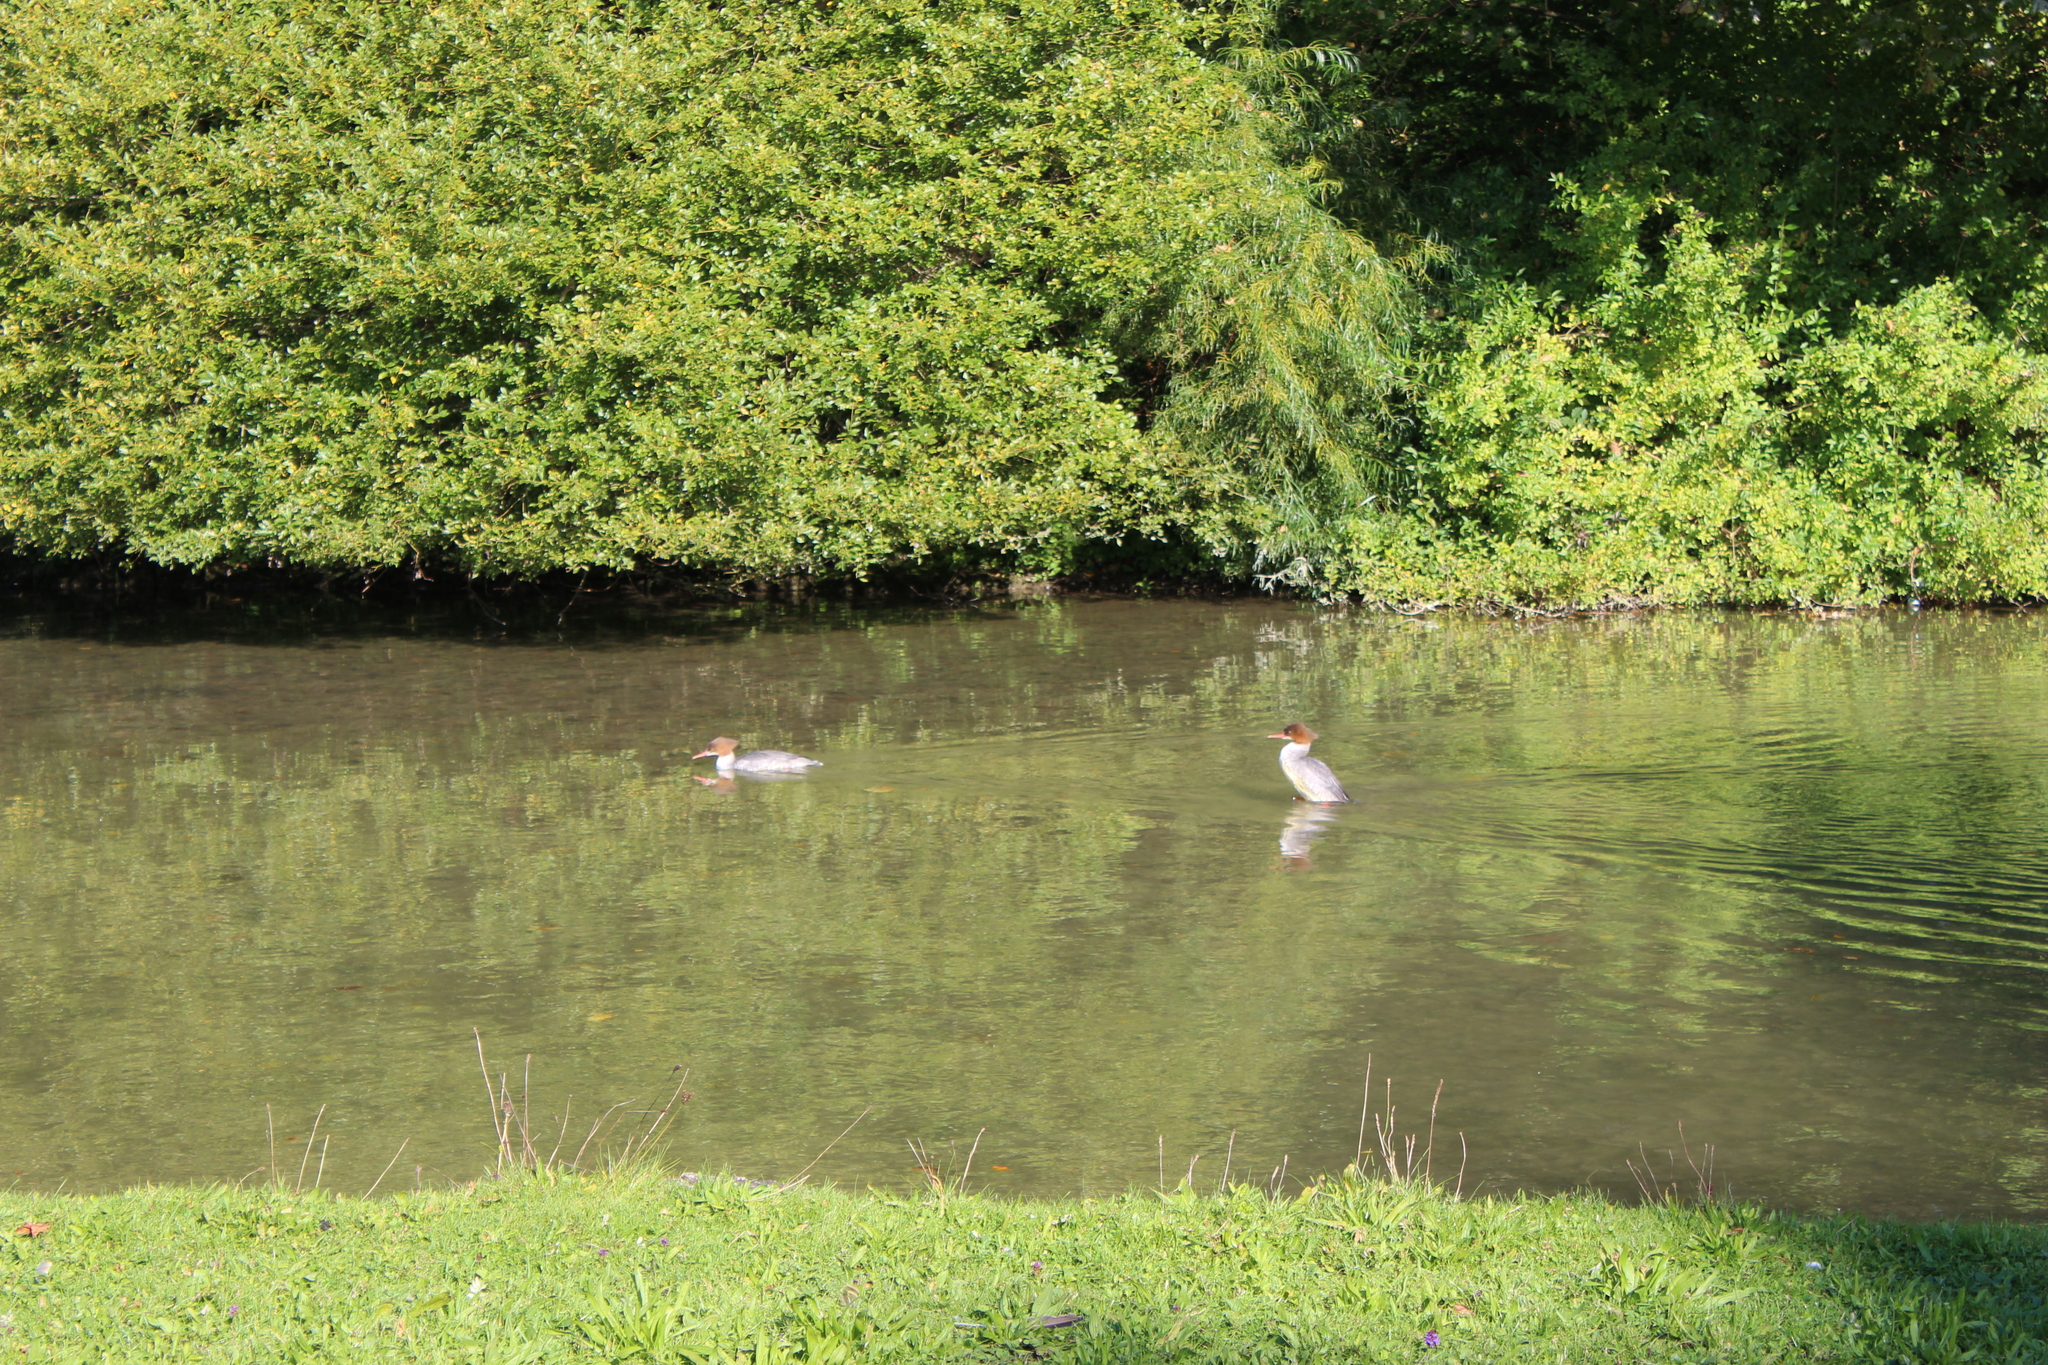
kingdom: Animalia
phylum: Chordata
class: Aves
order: Anseriformes
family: Anatidae
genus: Mergus
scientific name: Mergus merganser
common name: Common merganser
